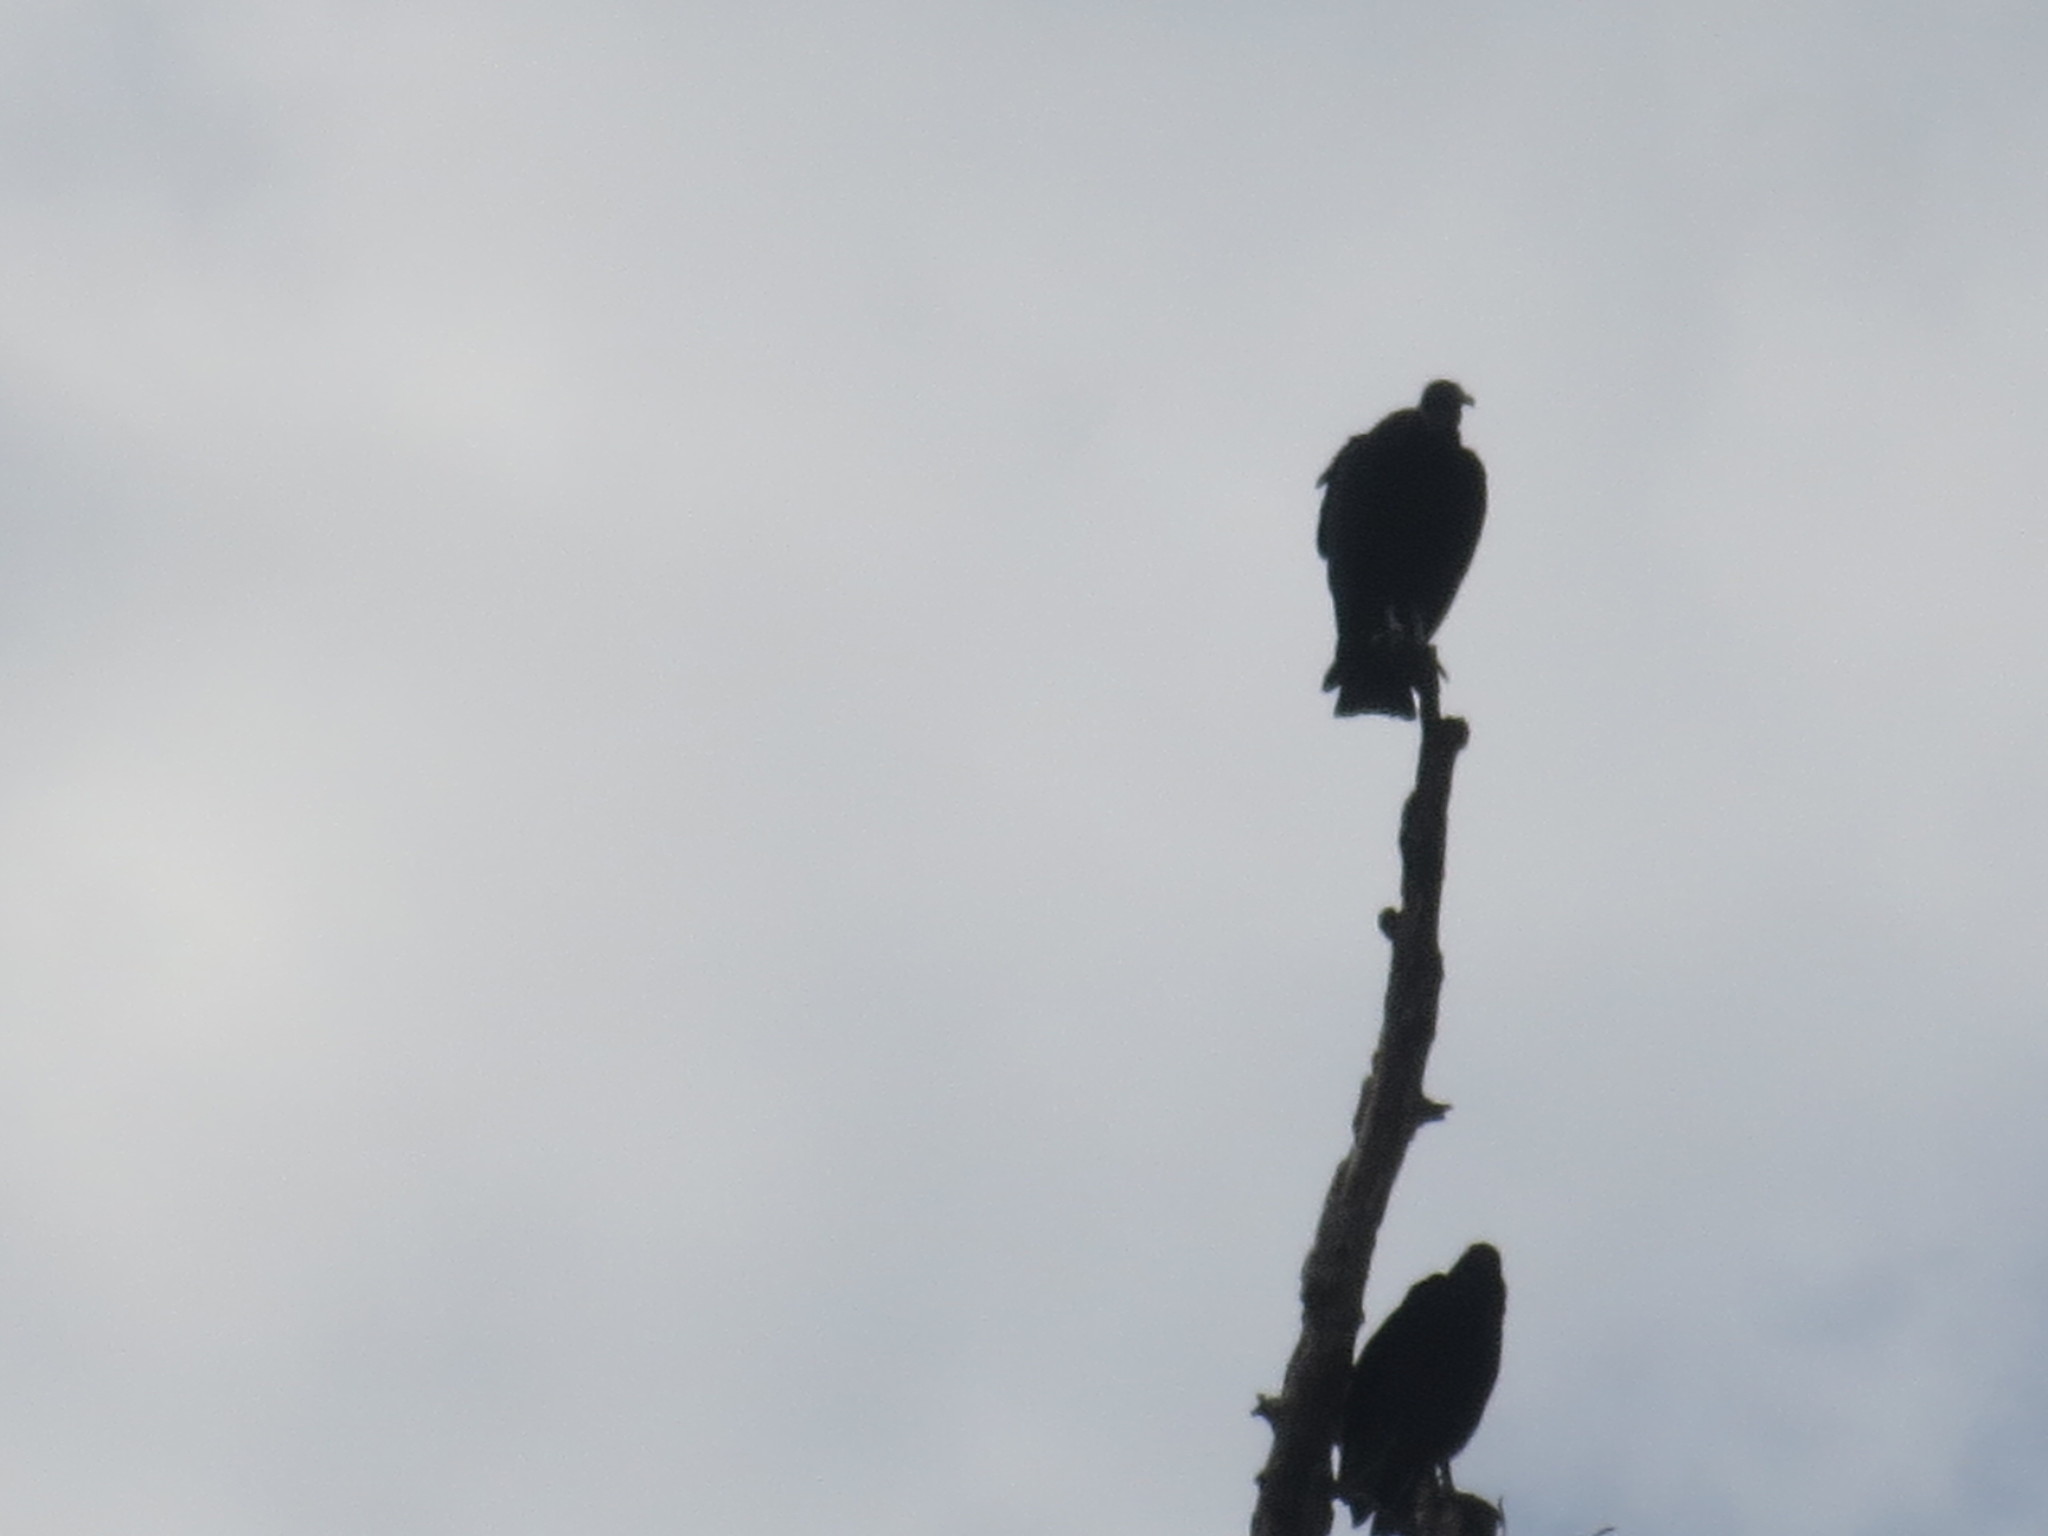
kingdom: Animalia
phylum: Chordata
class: Aves
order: Accipitriformes
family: Cathartidae
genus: Coragyps
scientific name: Coragyps atratus
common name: Black vulture
